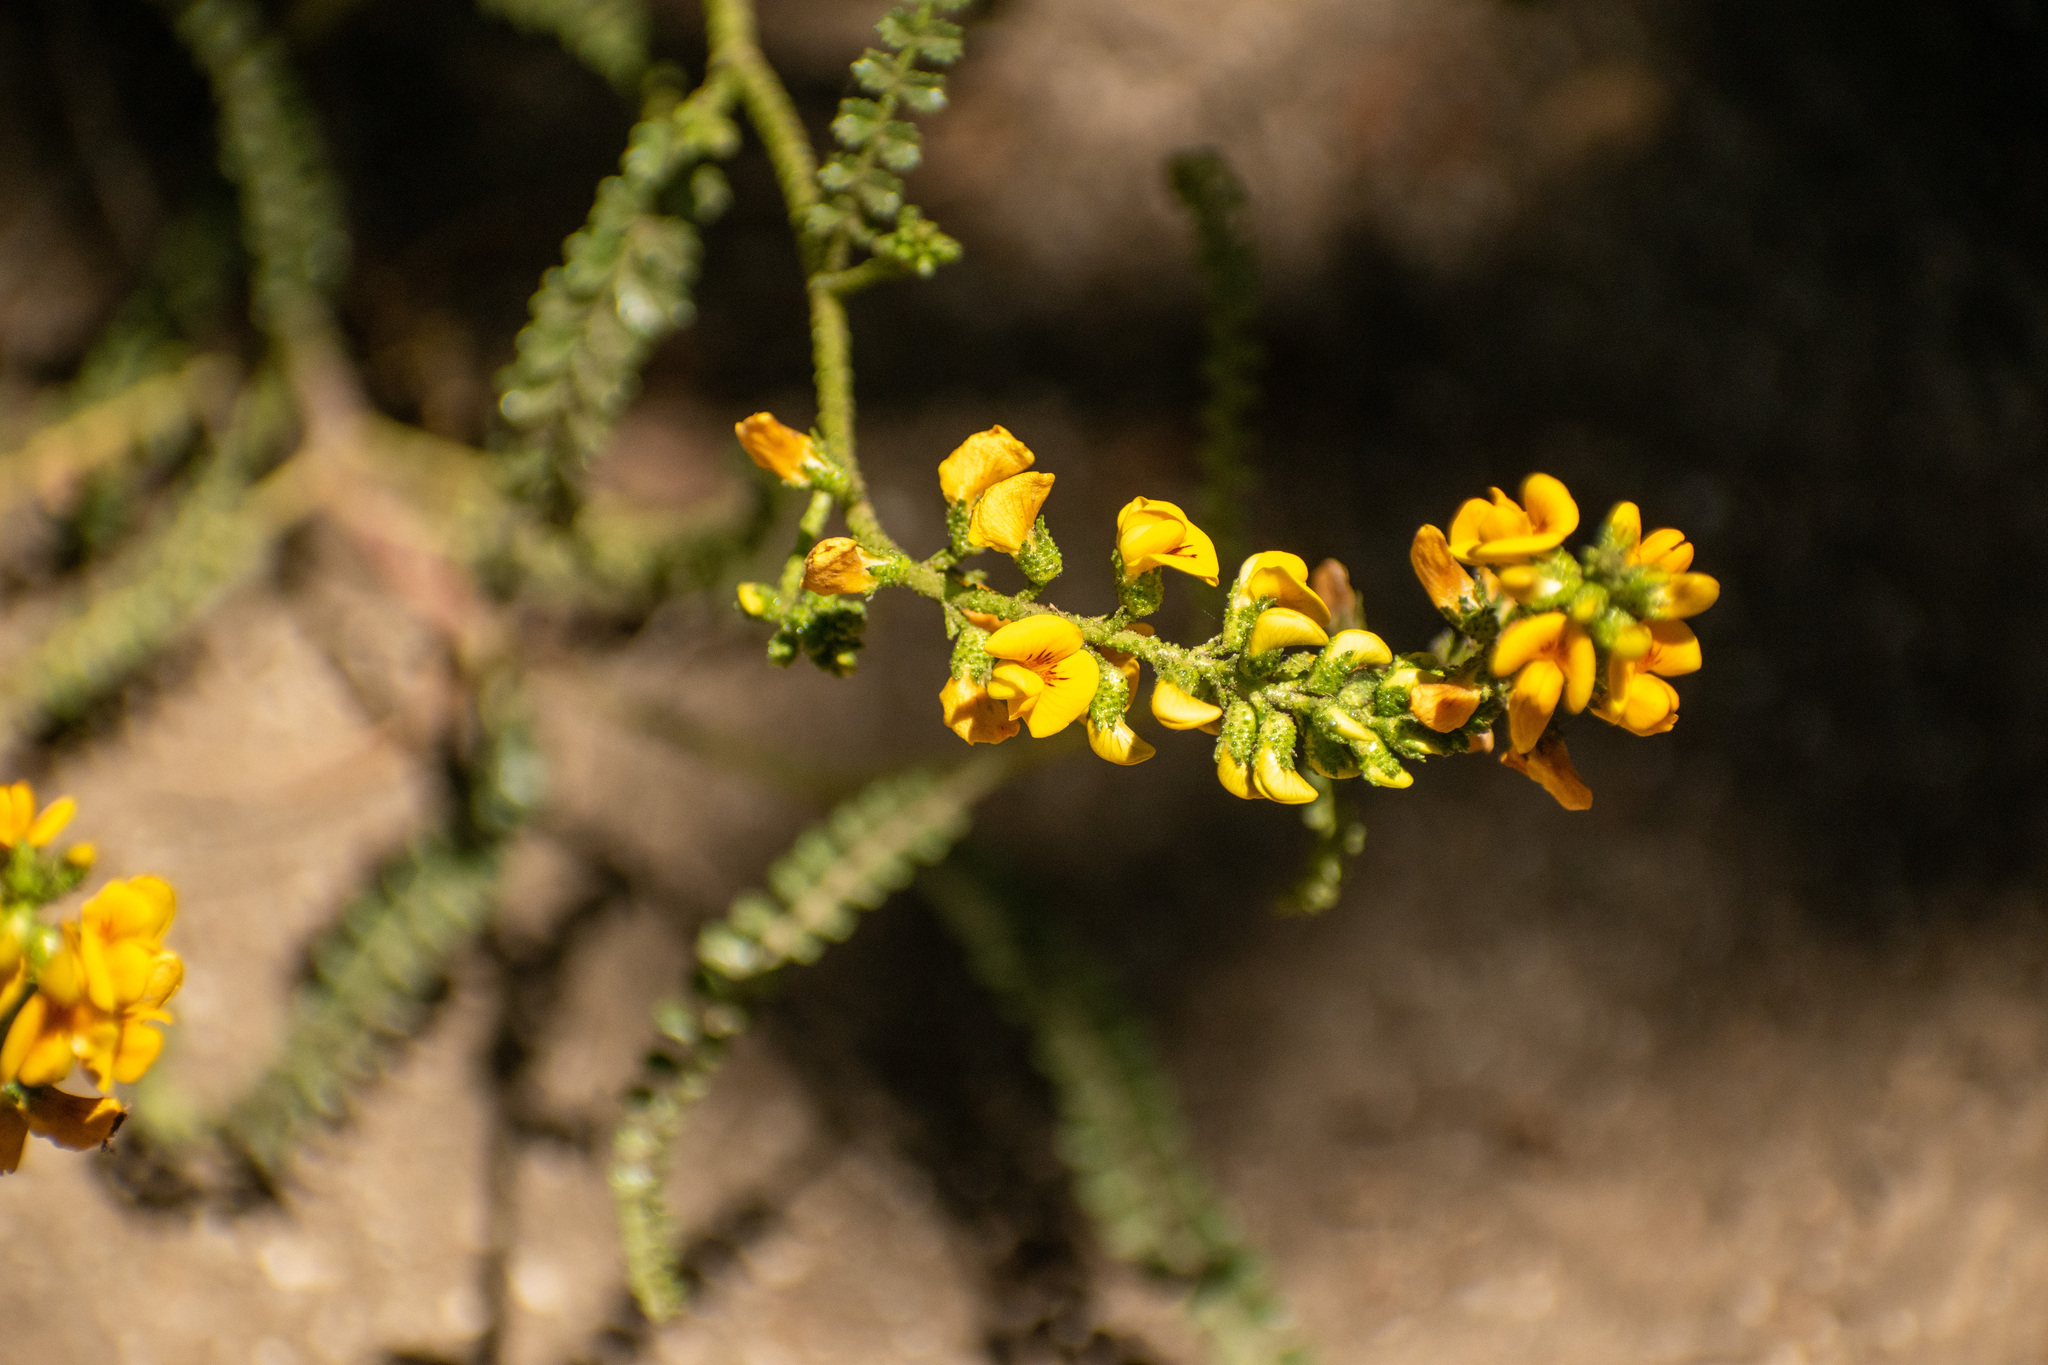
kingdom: Plantae
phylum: Tracheophyta
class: Magnoliopsida
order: Fabales
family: Fabaceae
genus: Adesmia
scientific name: Adesmia boronioides
